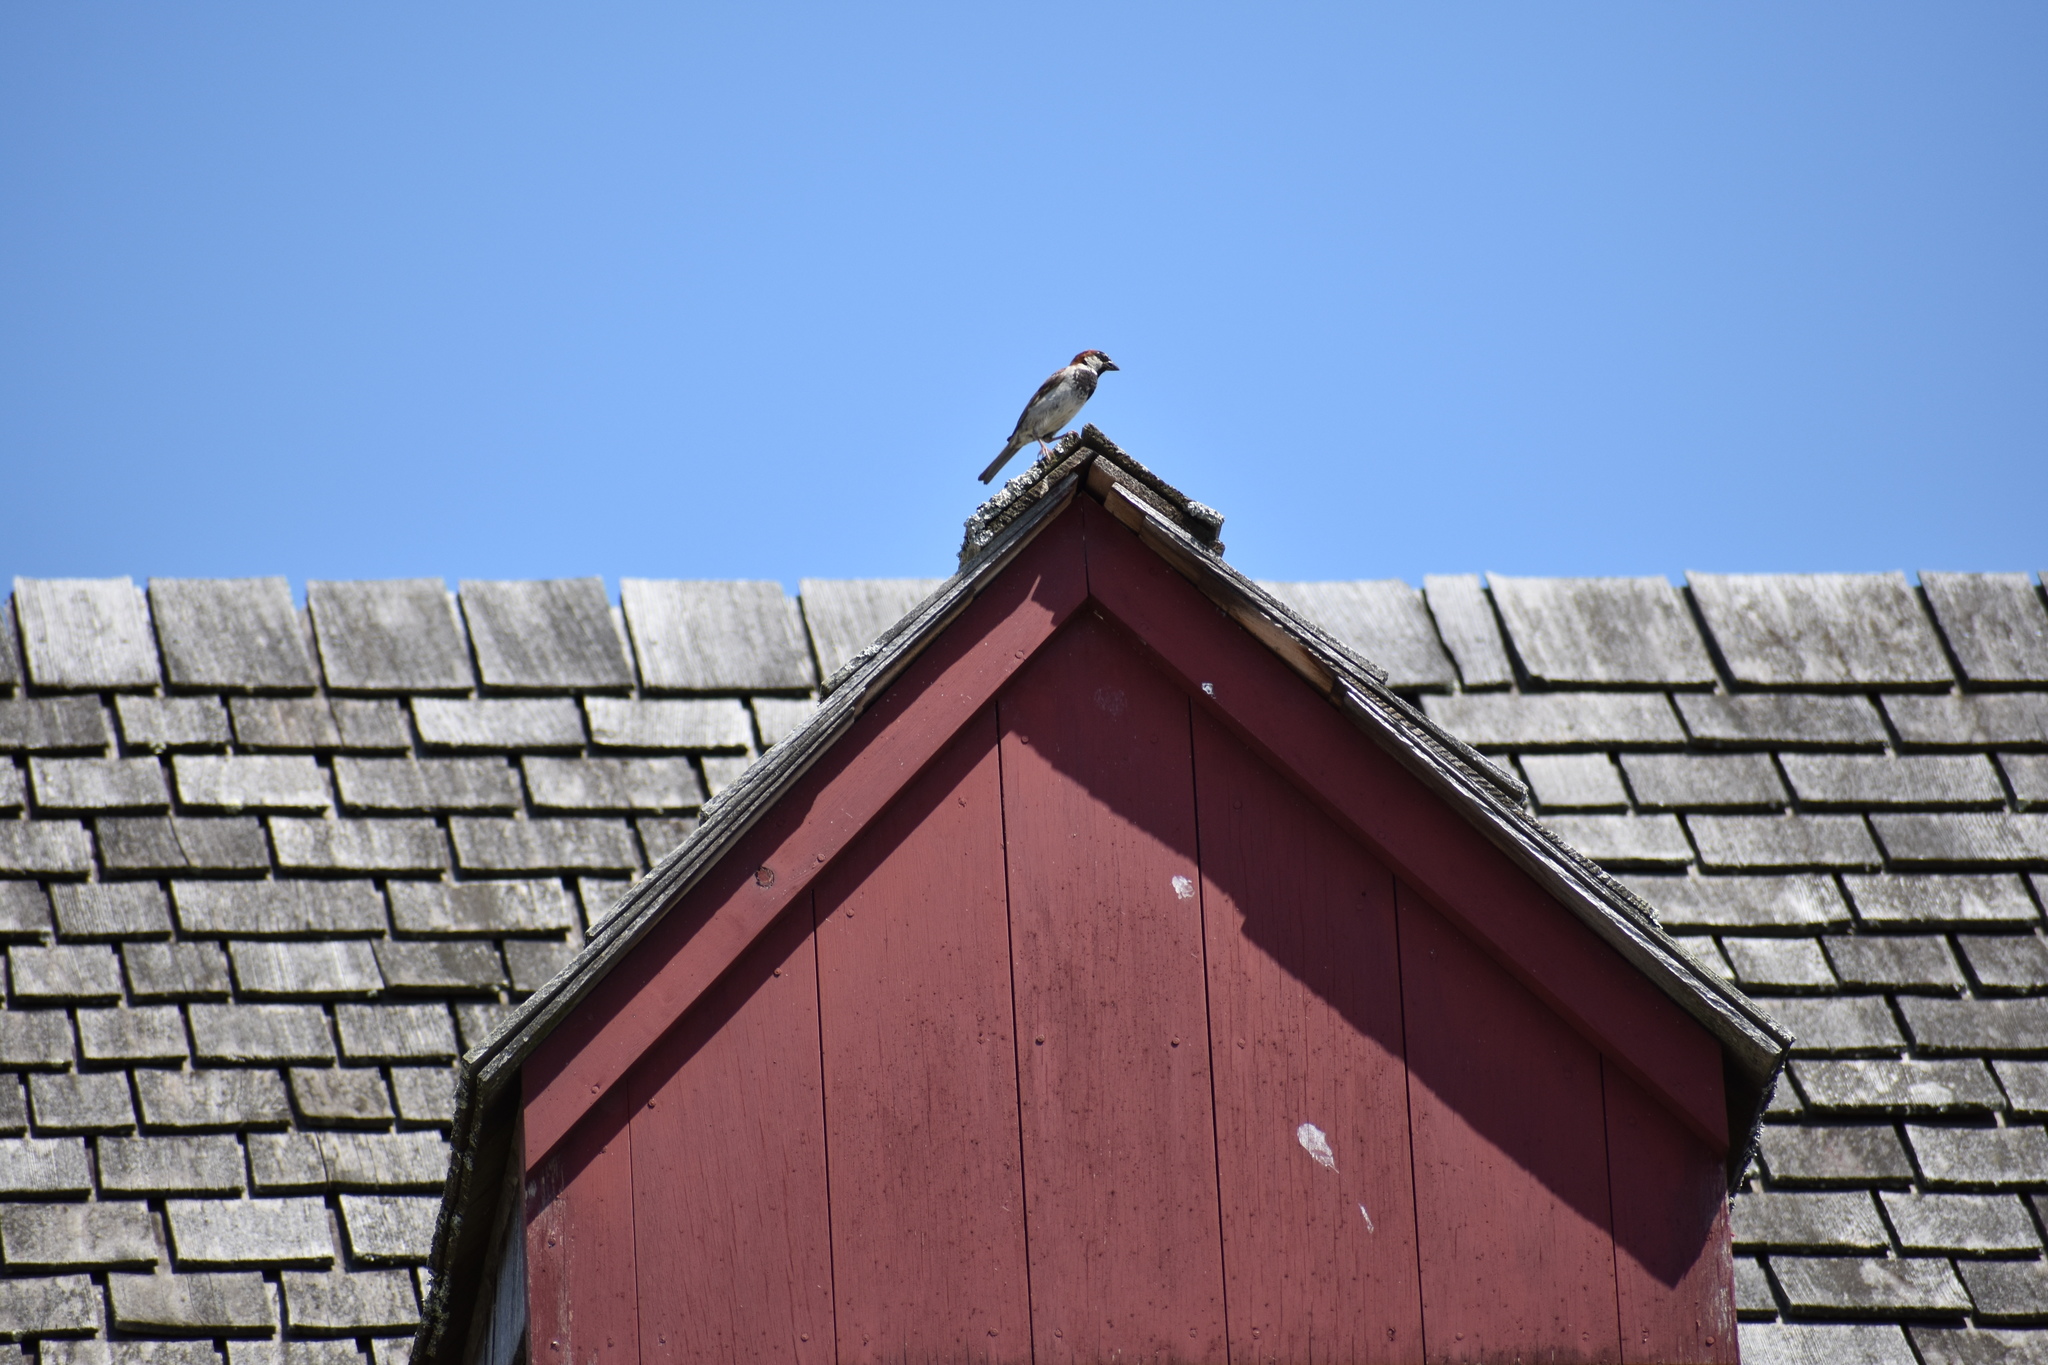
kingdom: Animalia
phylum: Chordata
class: Aves
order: Passeriformes
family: Passeridae
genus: Passer
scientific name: Passer domesticus
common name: House sparrow
